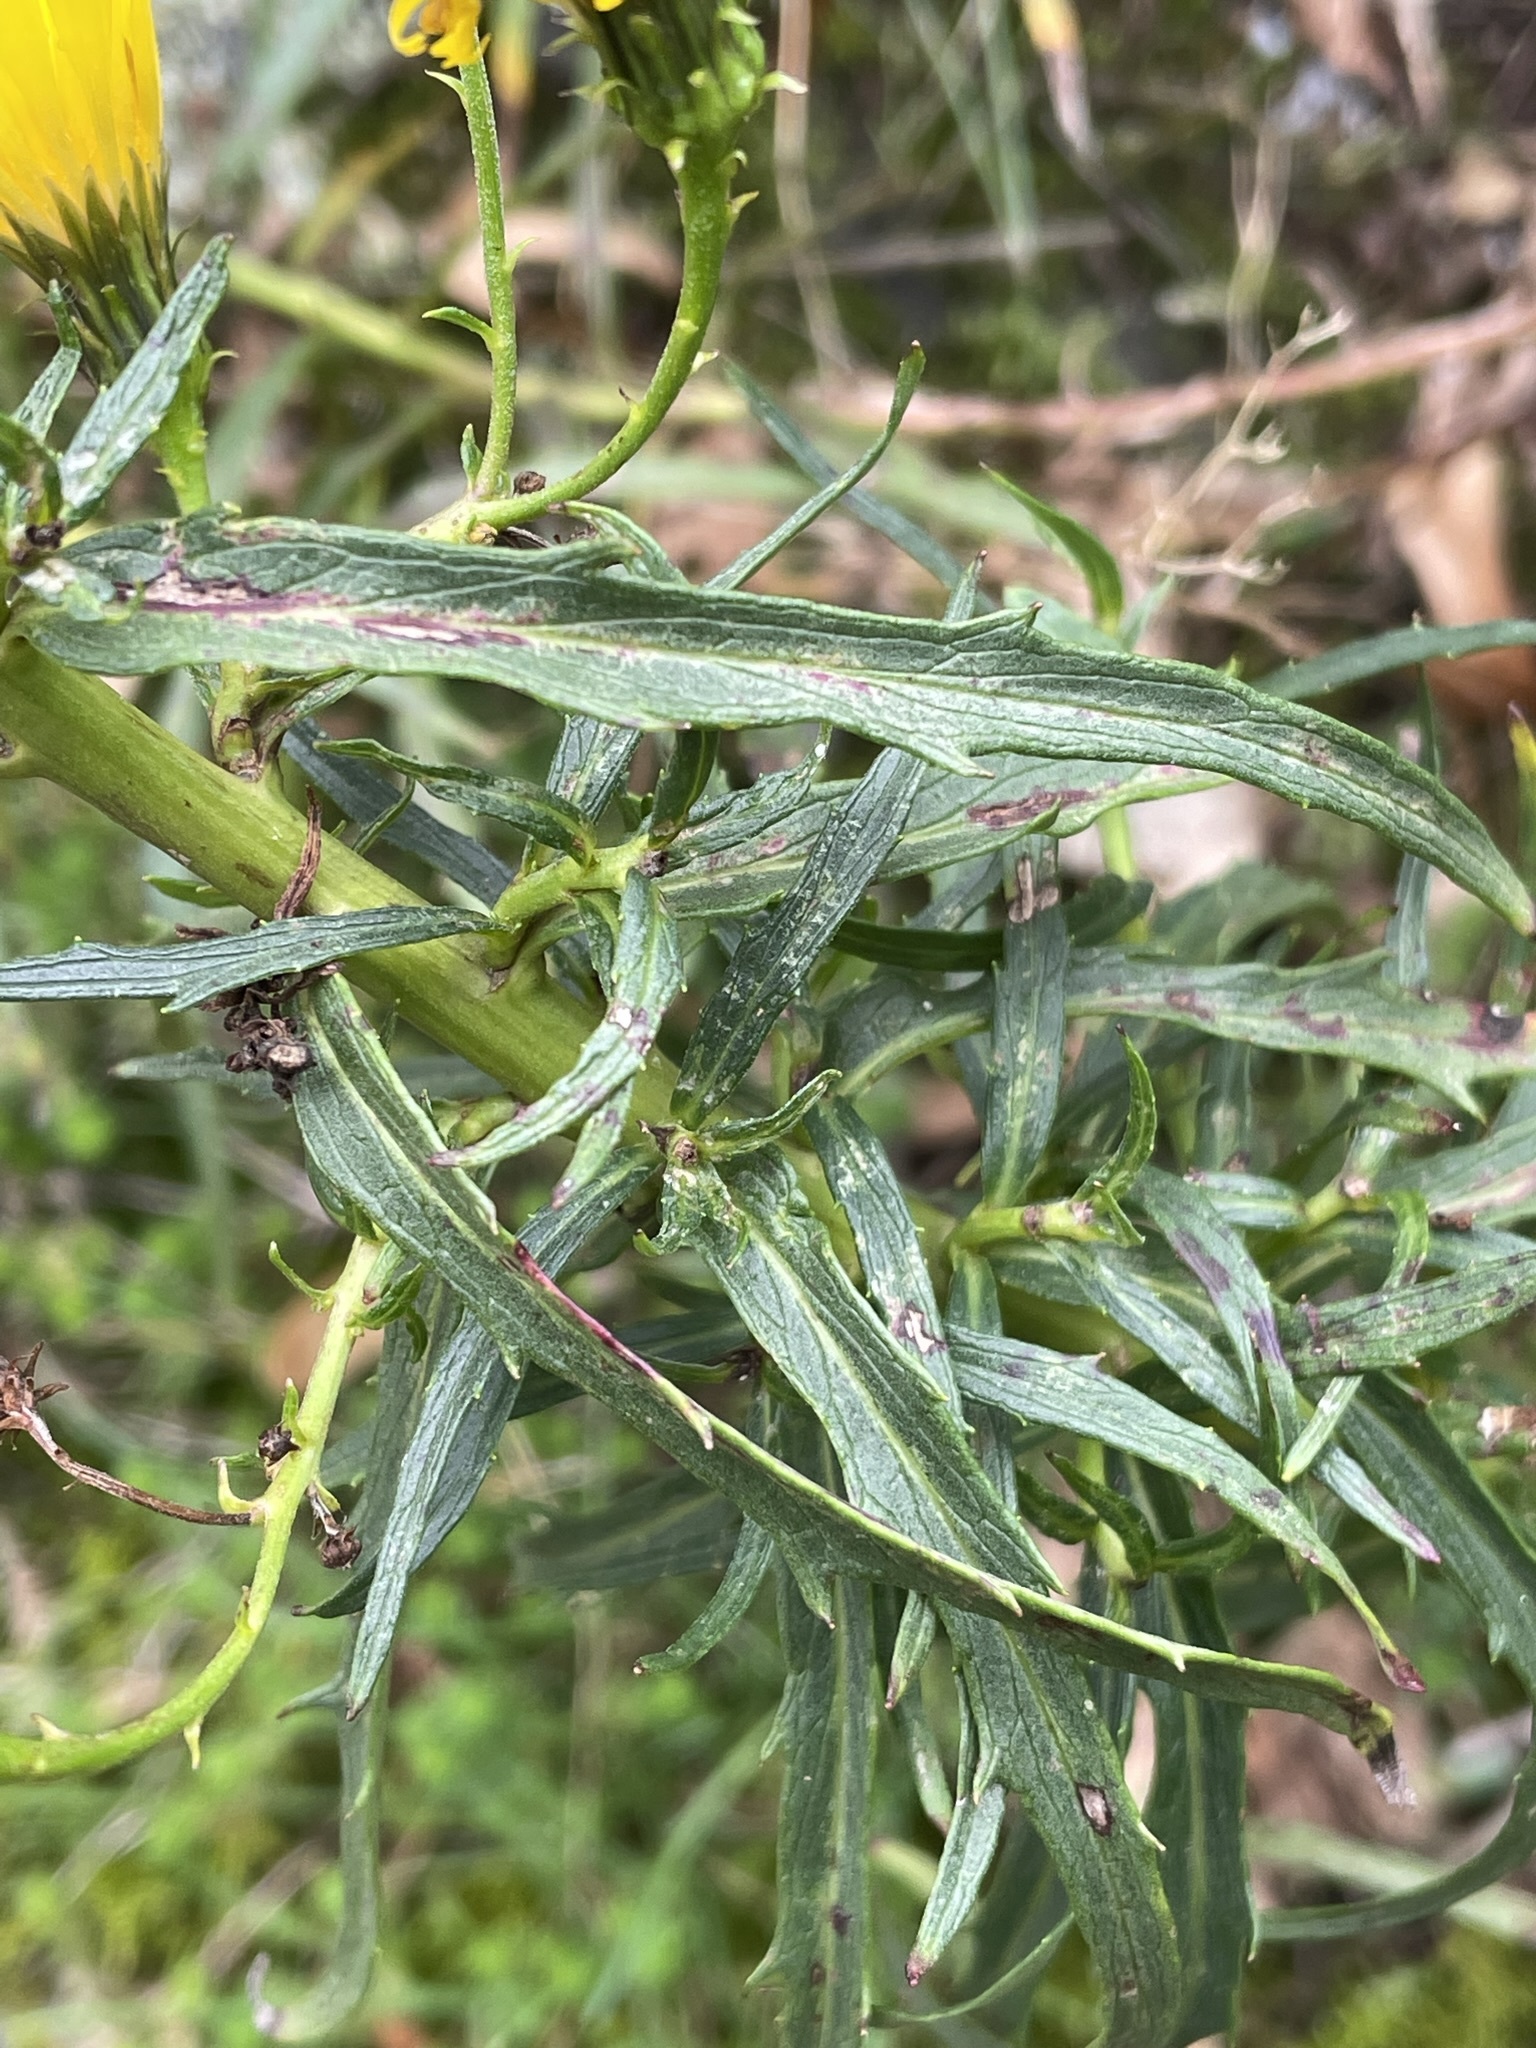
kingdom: Plantae
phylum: Tracheophyta
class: Magnoliopsida
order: Asterales
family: Asteraceae
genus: Hieracium
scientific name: Hieracium umbellatum
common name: Northern hawkweed
